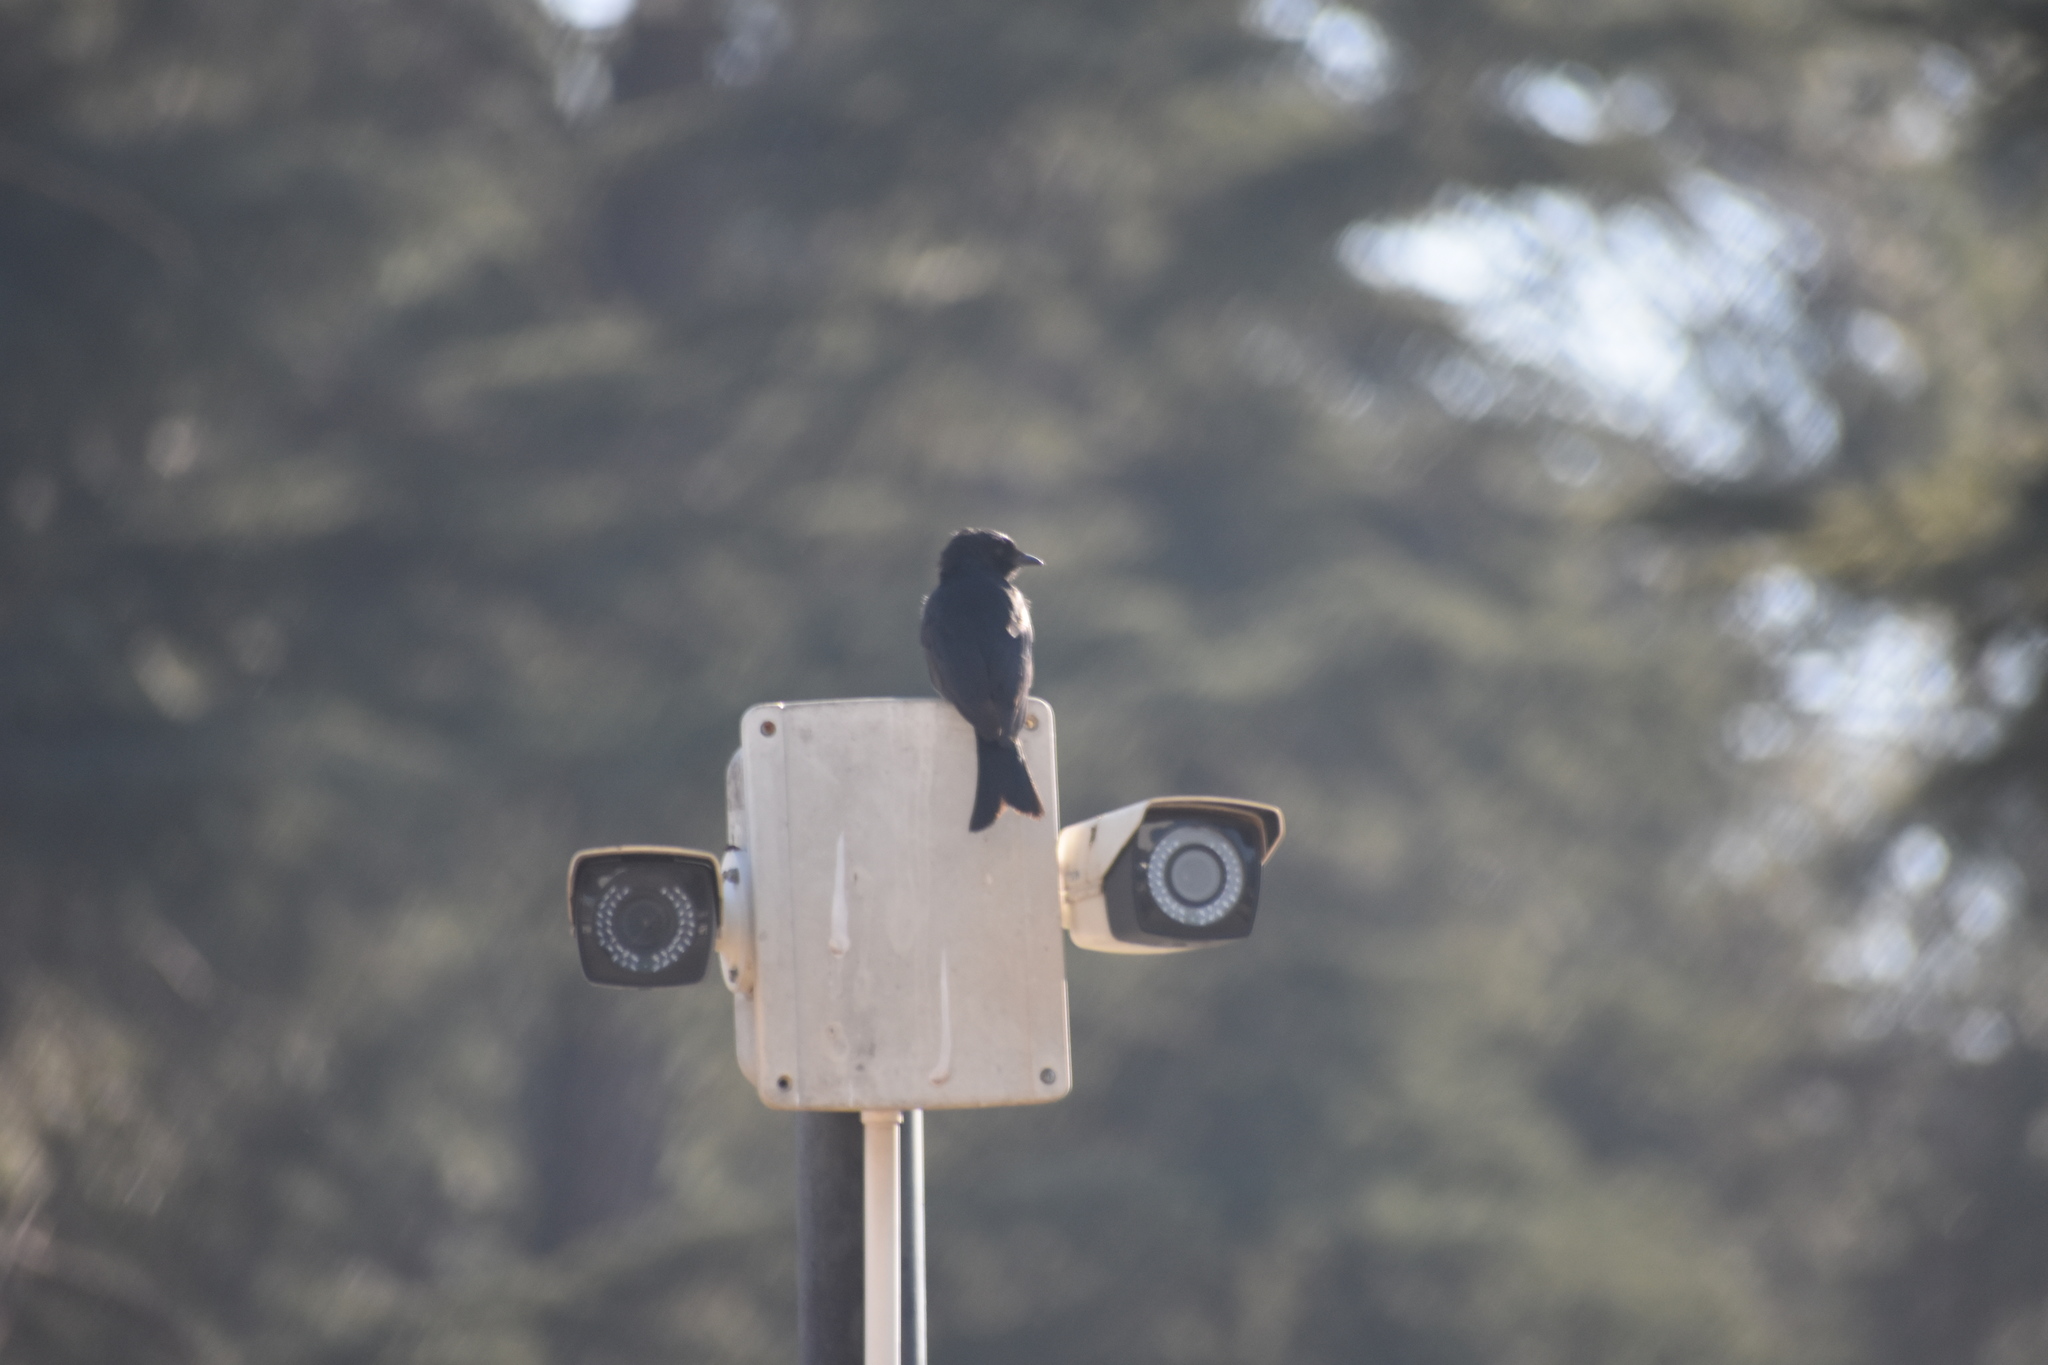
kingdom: Animalia
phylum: Chordata
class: Aves
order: Passeriformes
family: Dicruridae
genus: Dicrurus
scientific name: Dicrurus adsimilis
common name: Fork-tailed drongo
